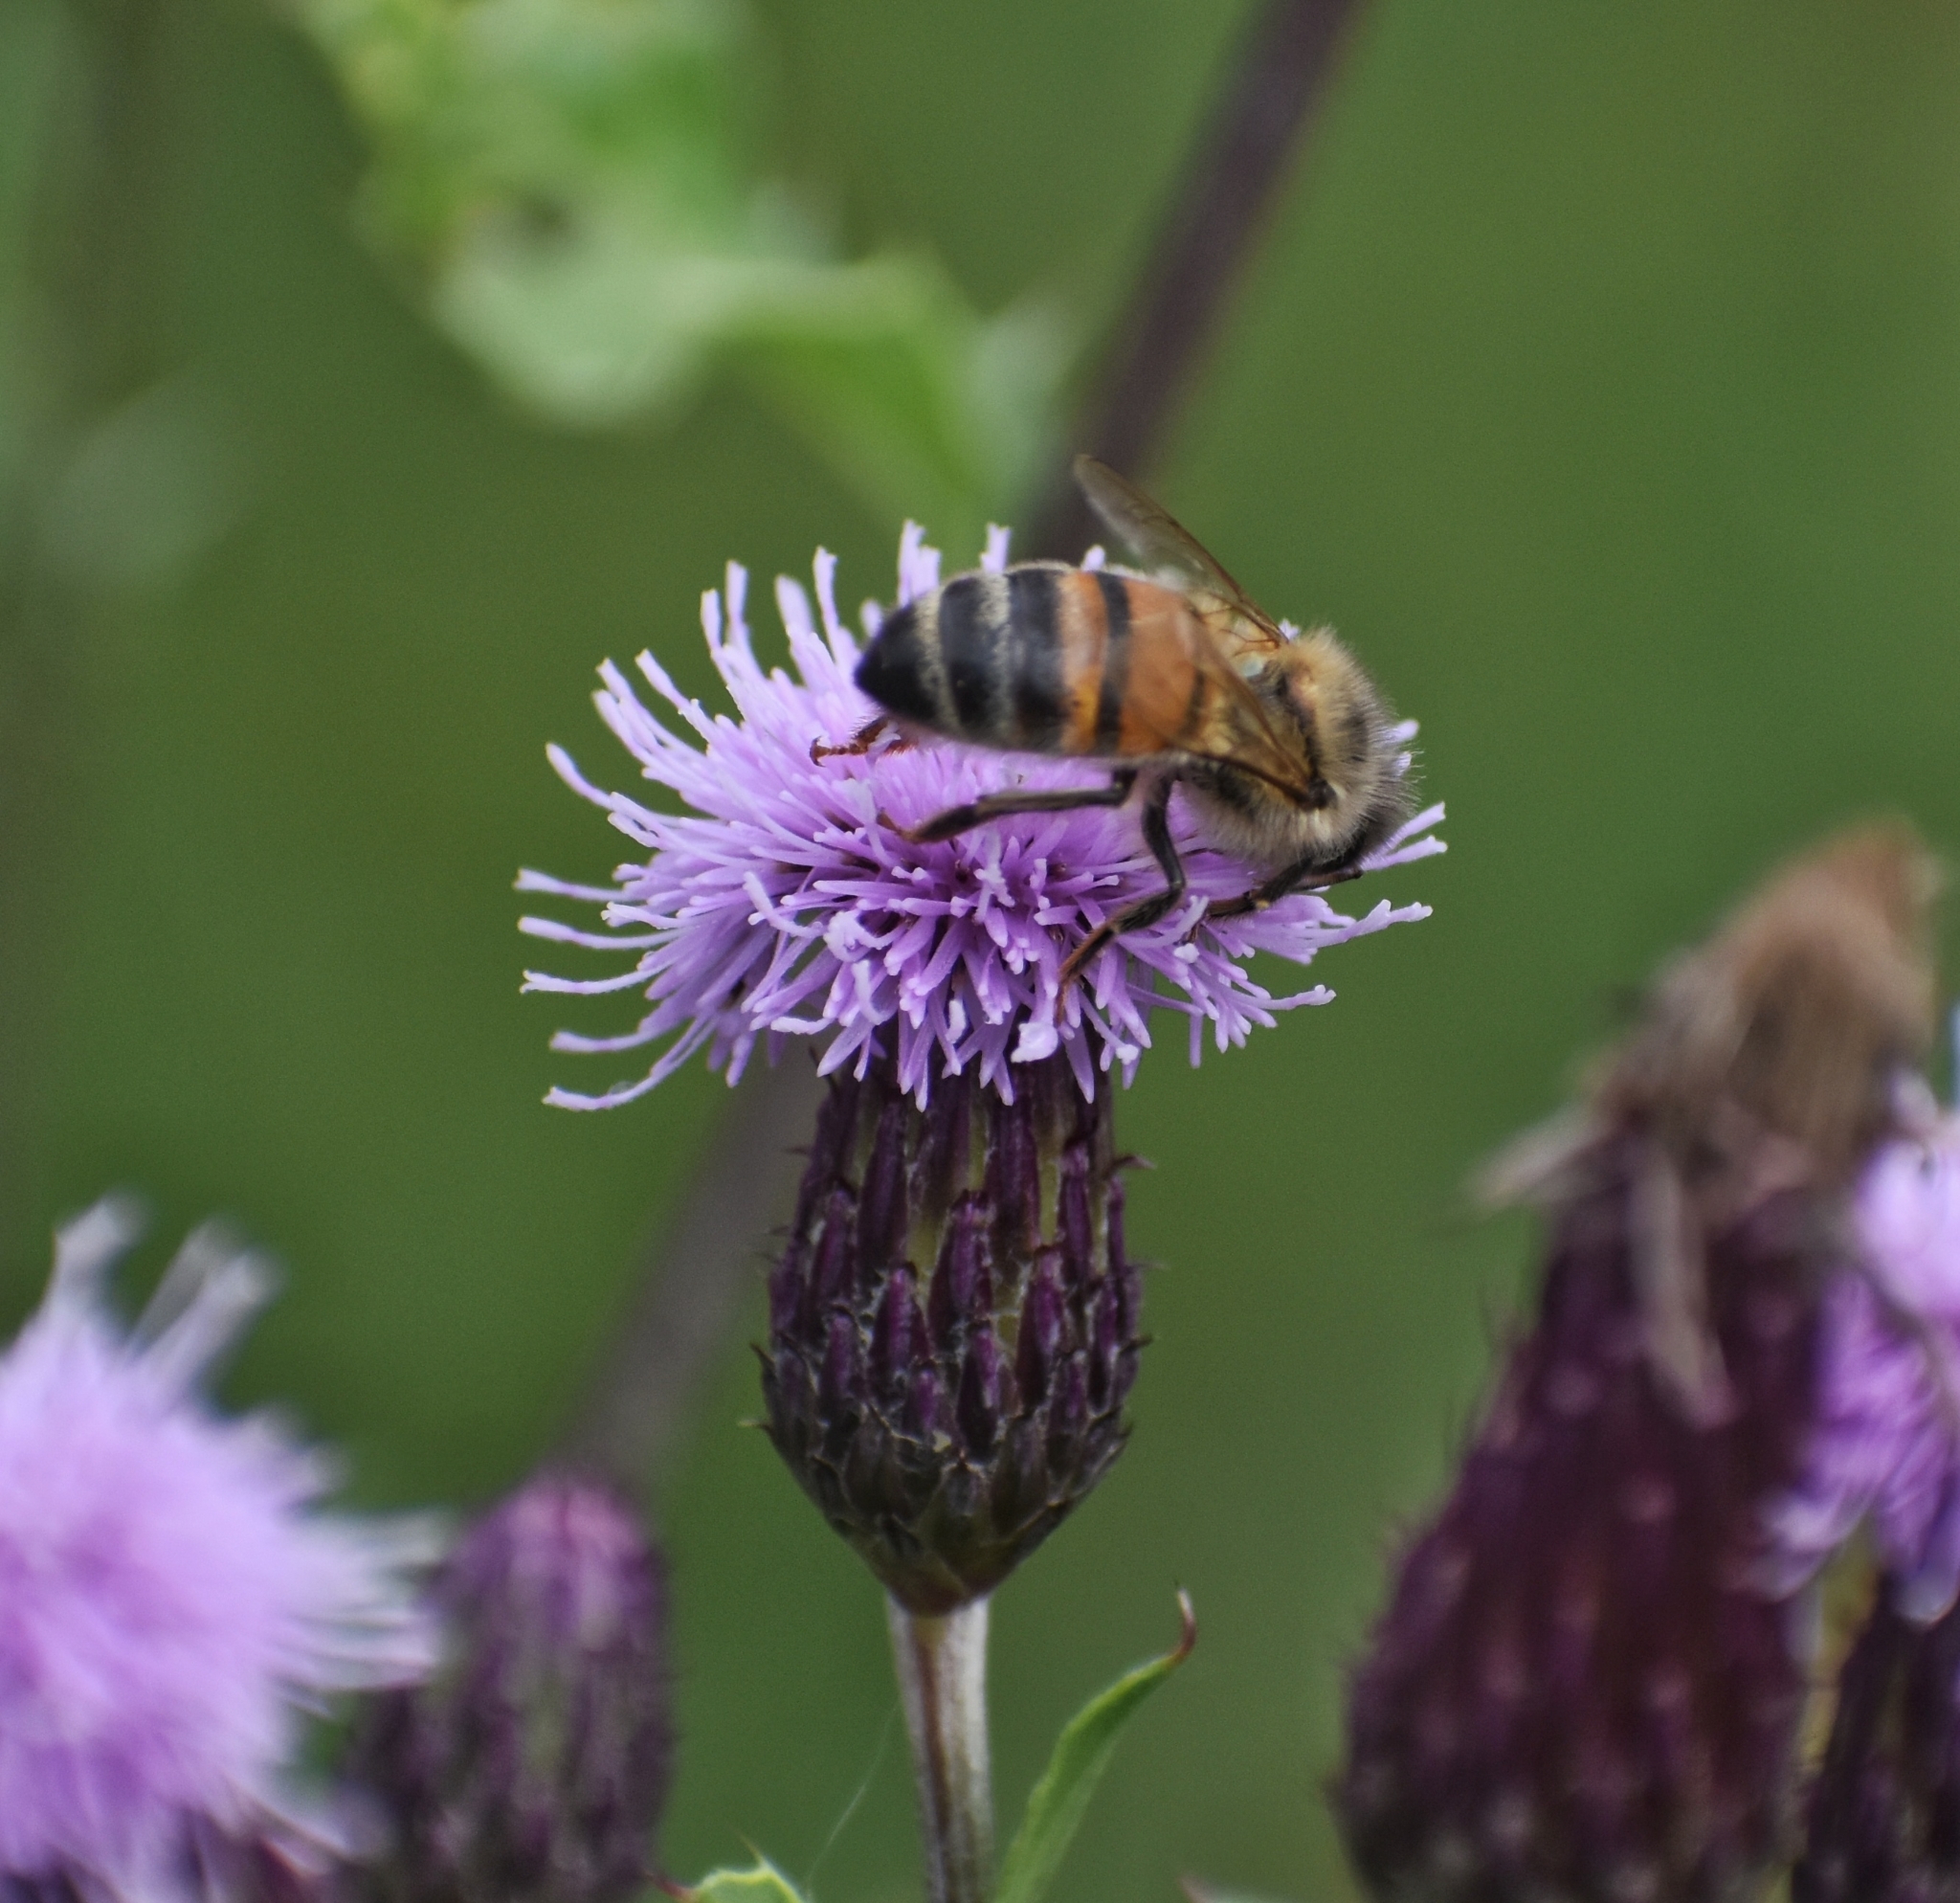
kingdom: Animalia
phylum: Arthropoda
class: Insecta
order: Hymenoptera
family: Apidae
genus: Apis
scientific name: Apis mellifera
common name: Honey bee
